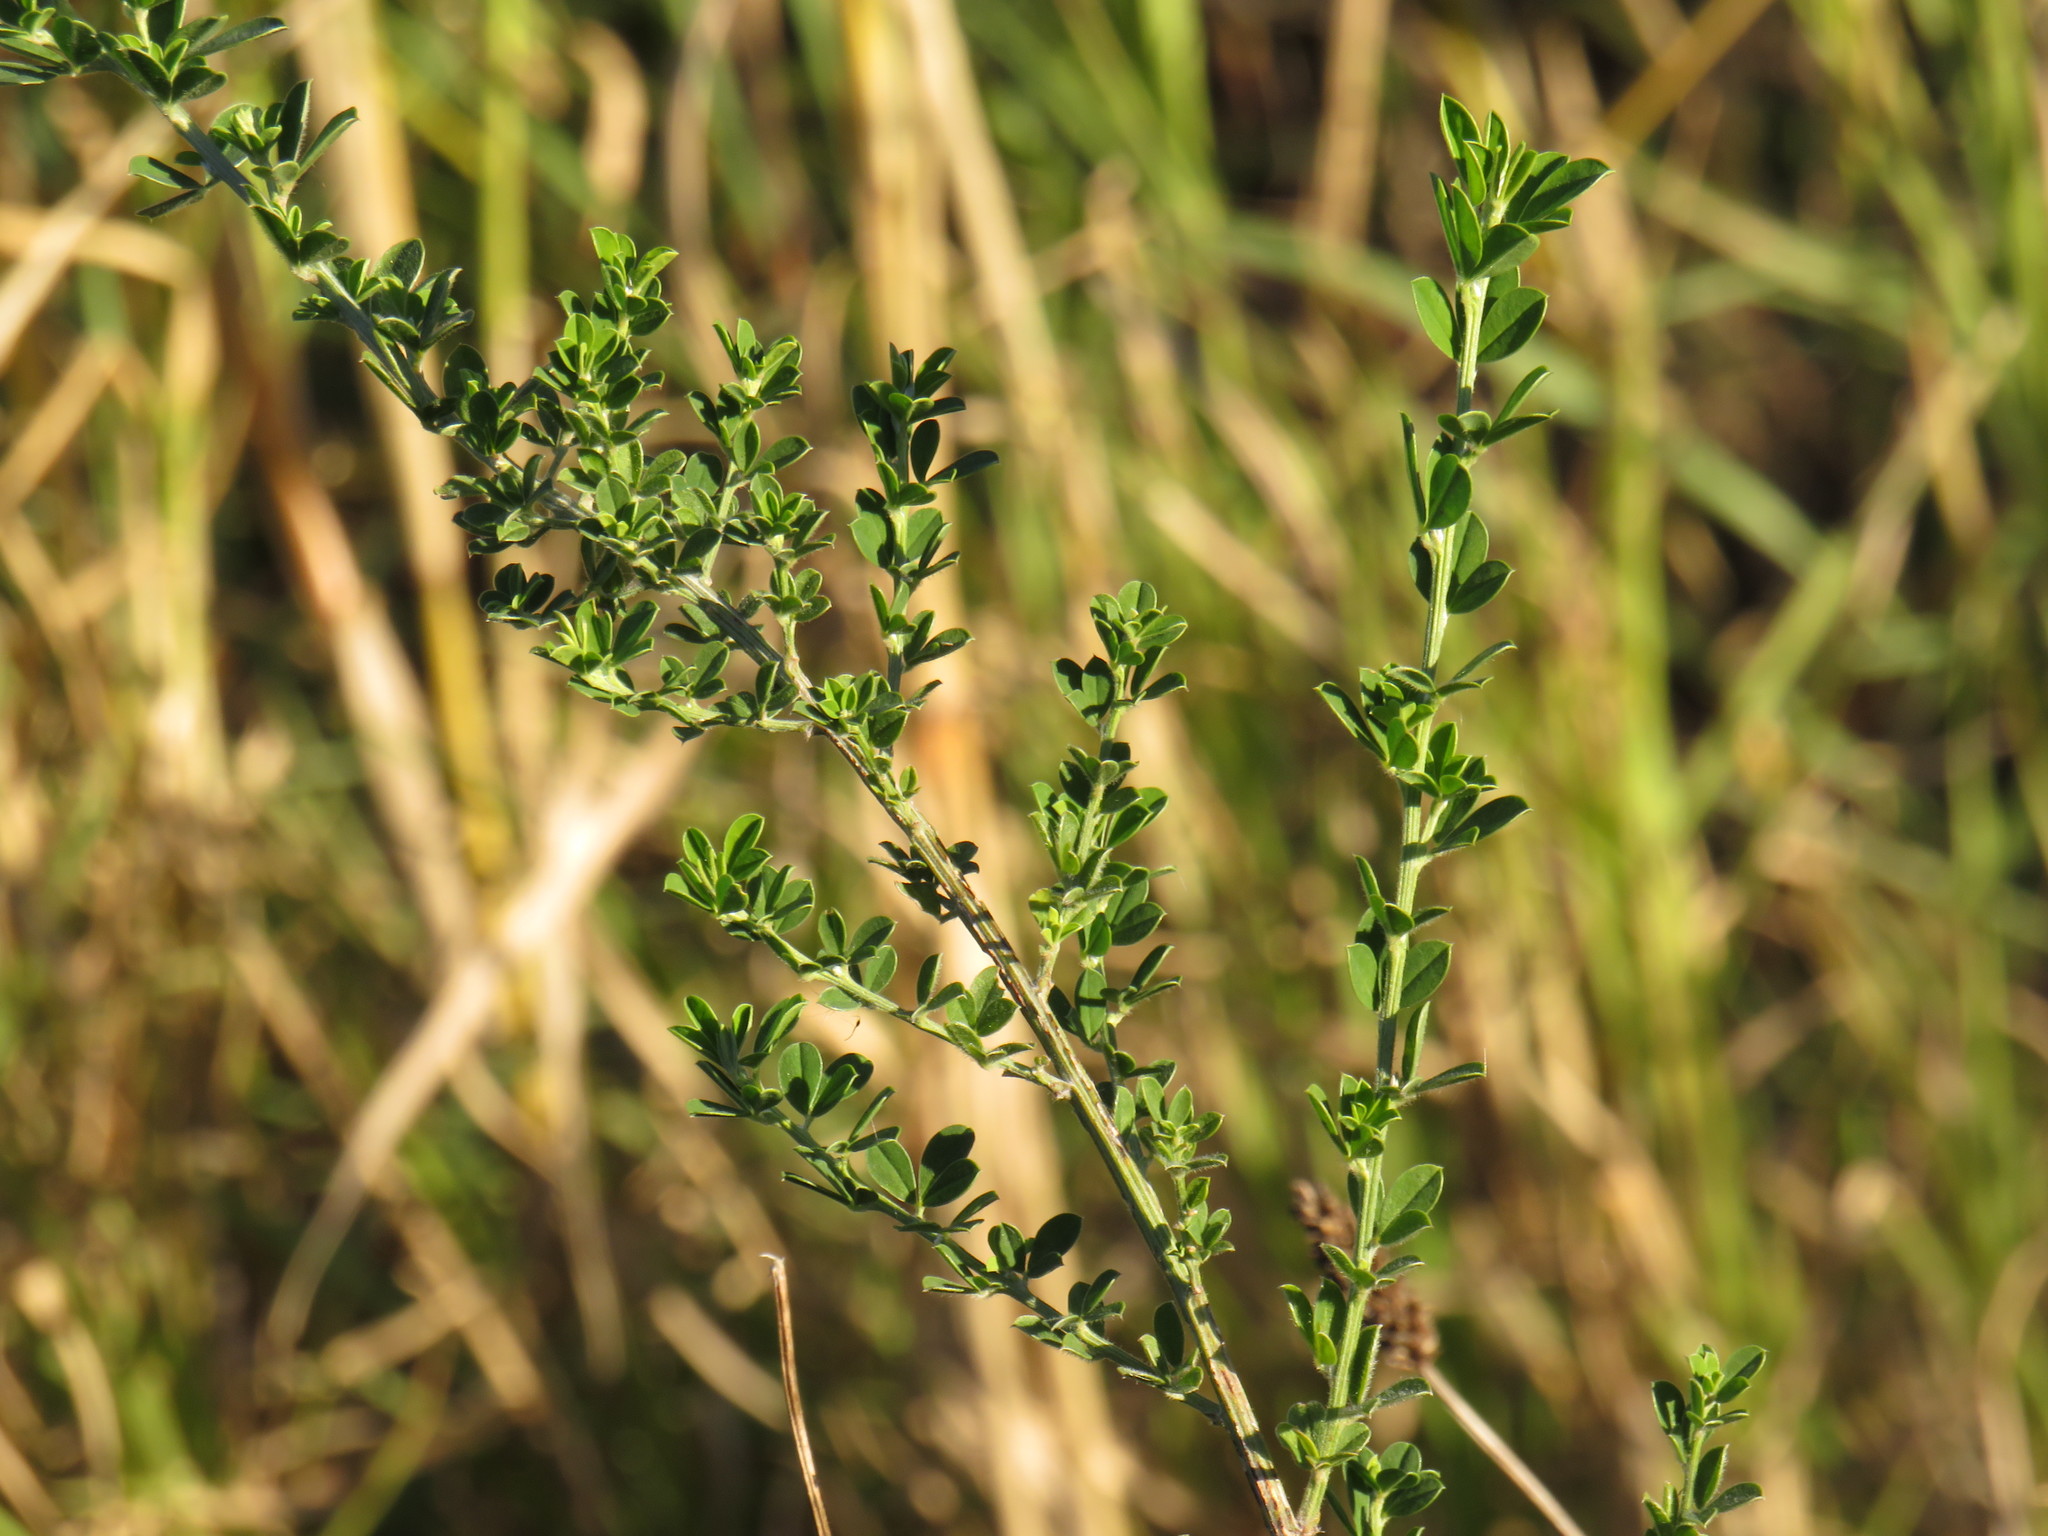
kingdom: Plantae
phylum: Tracheophyta
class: Magnoliopsida
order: Fabales
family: Fabaceae
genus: Genista
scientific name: Genista monspessulana
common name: Montpellier broom
